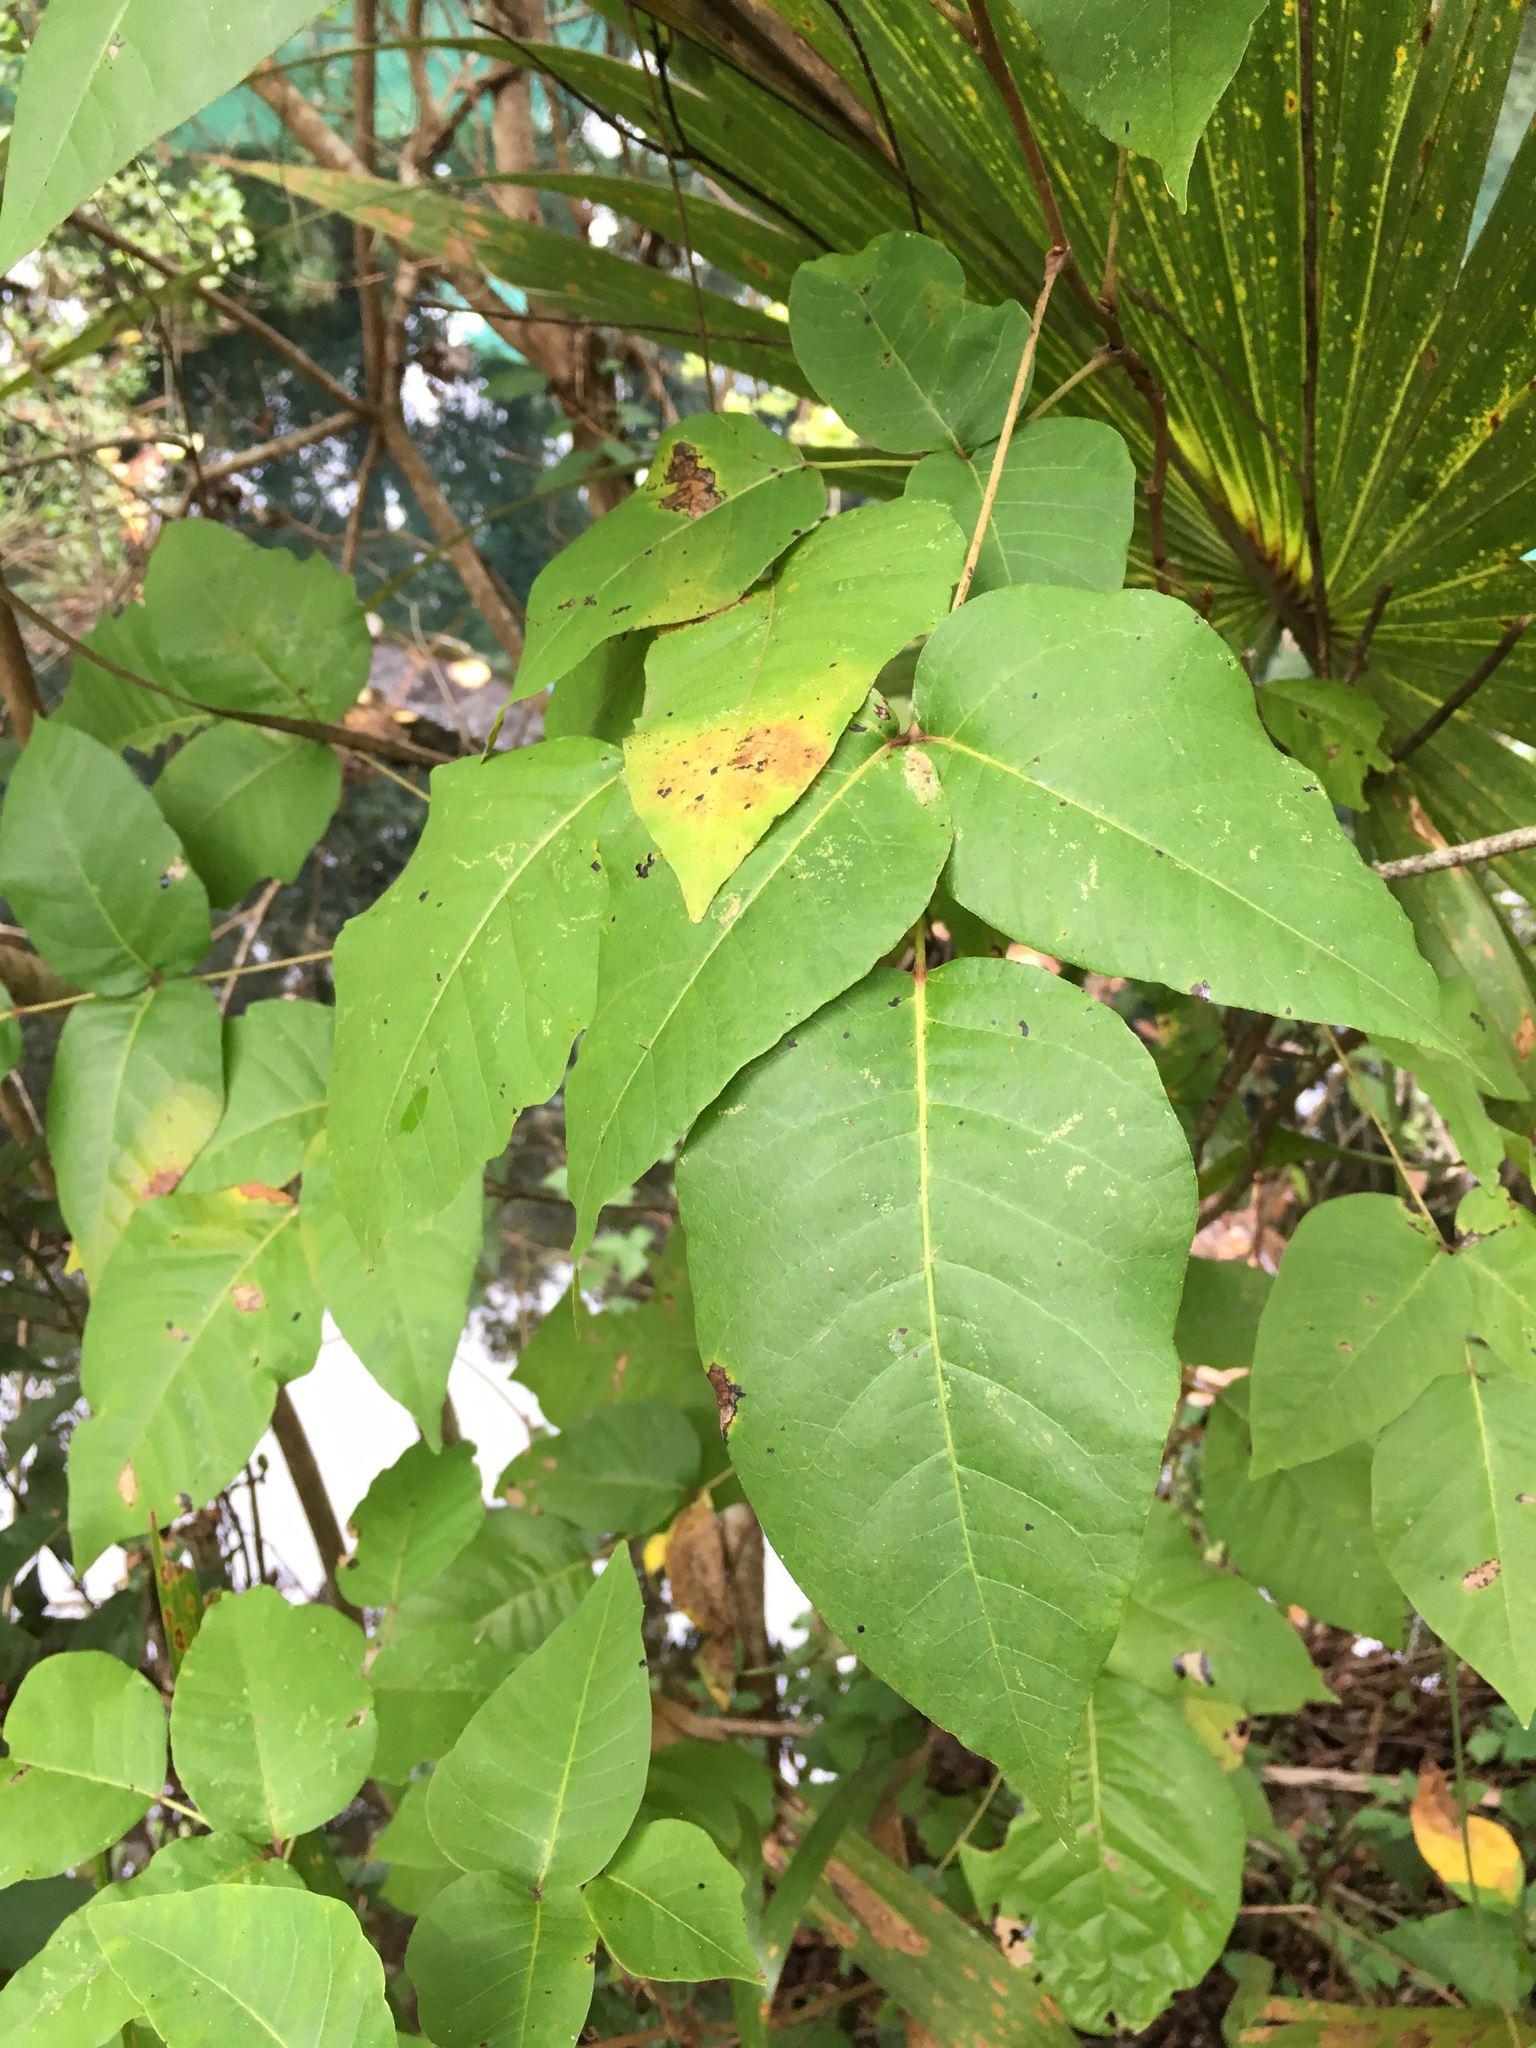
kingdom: Plantae
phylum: Tracheophyta
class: Magnoliopsida
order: Sapindales
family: Anacardiaceae
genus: Toxicodendron
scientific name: Toxicodendron radicans
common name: Poison ivy
